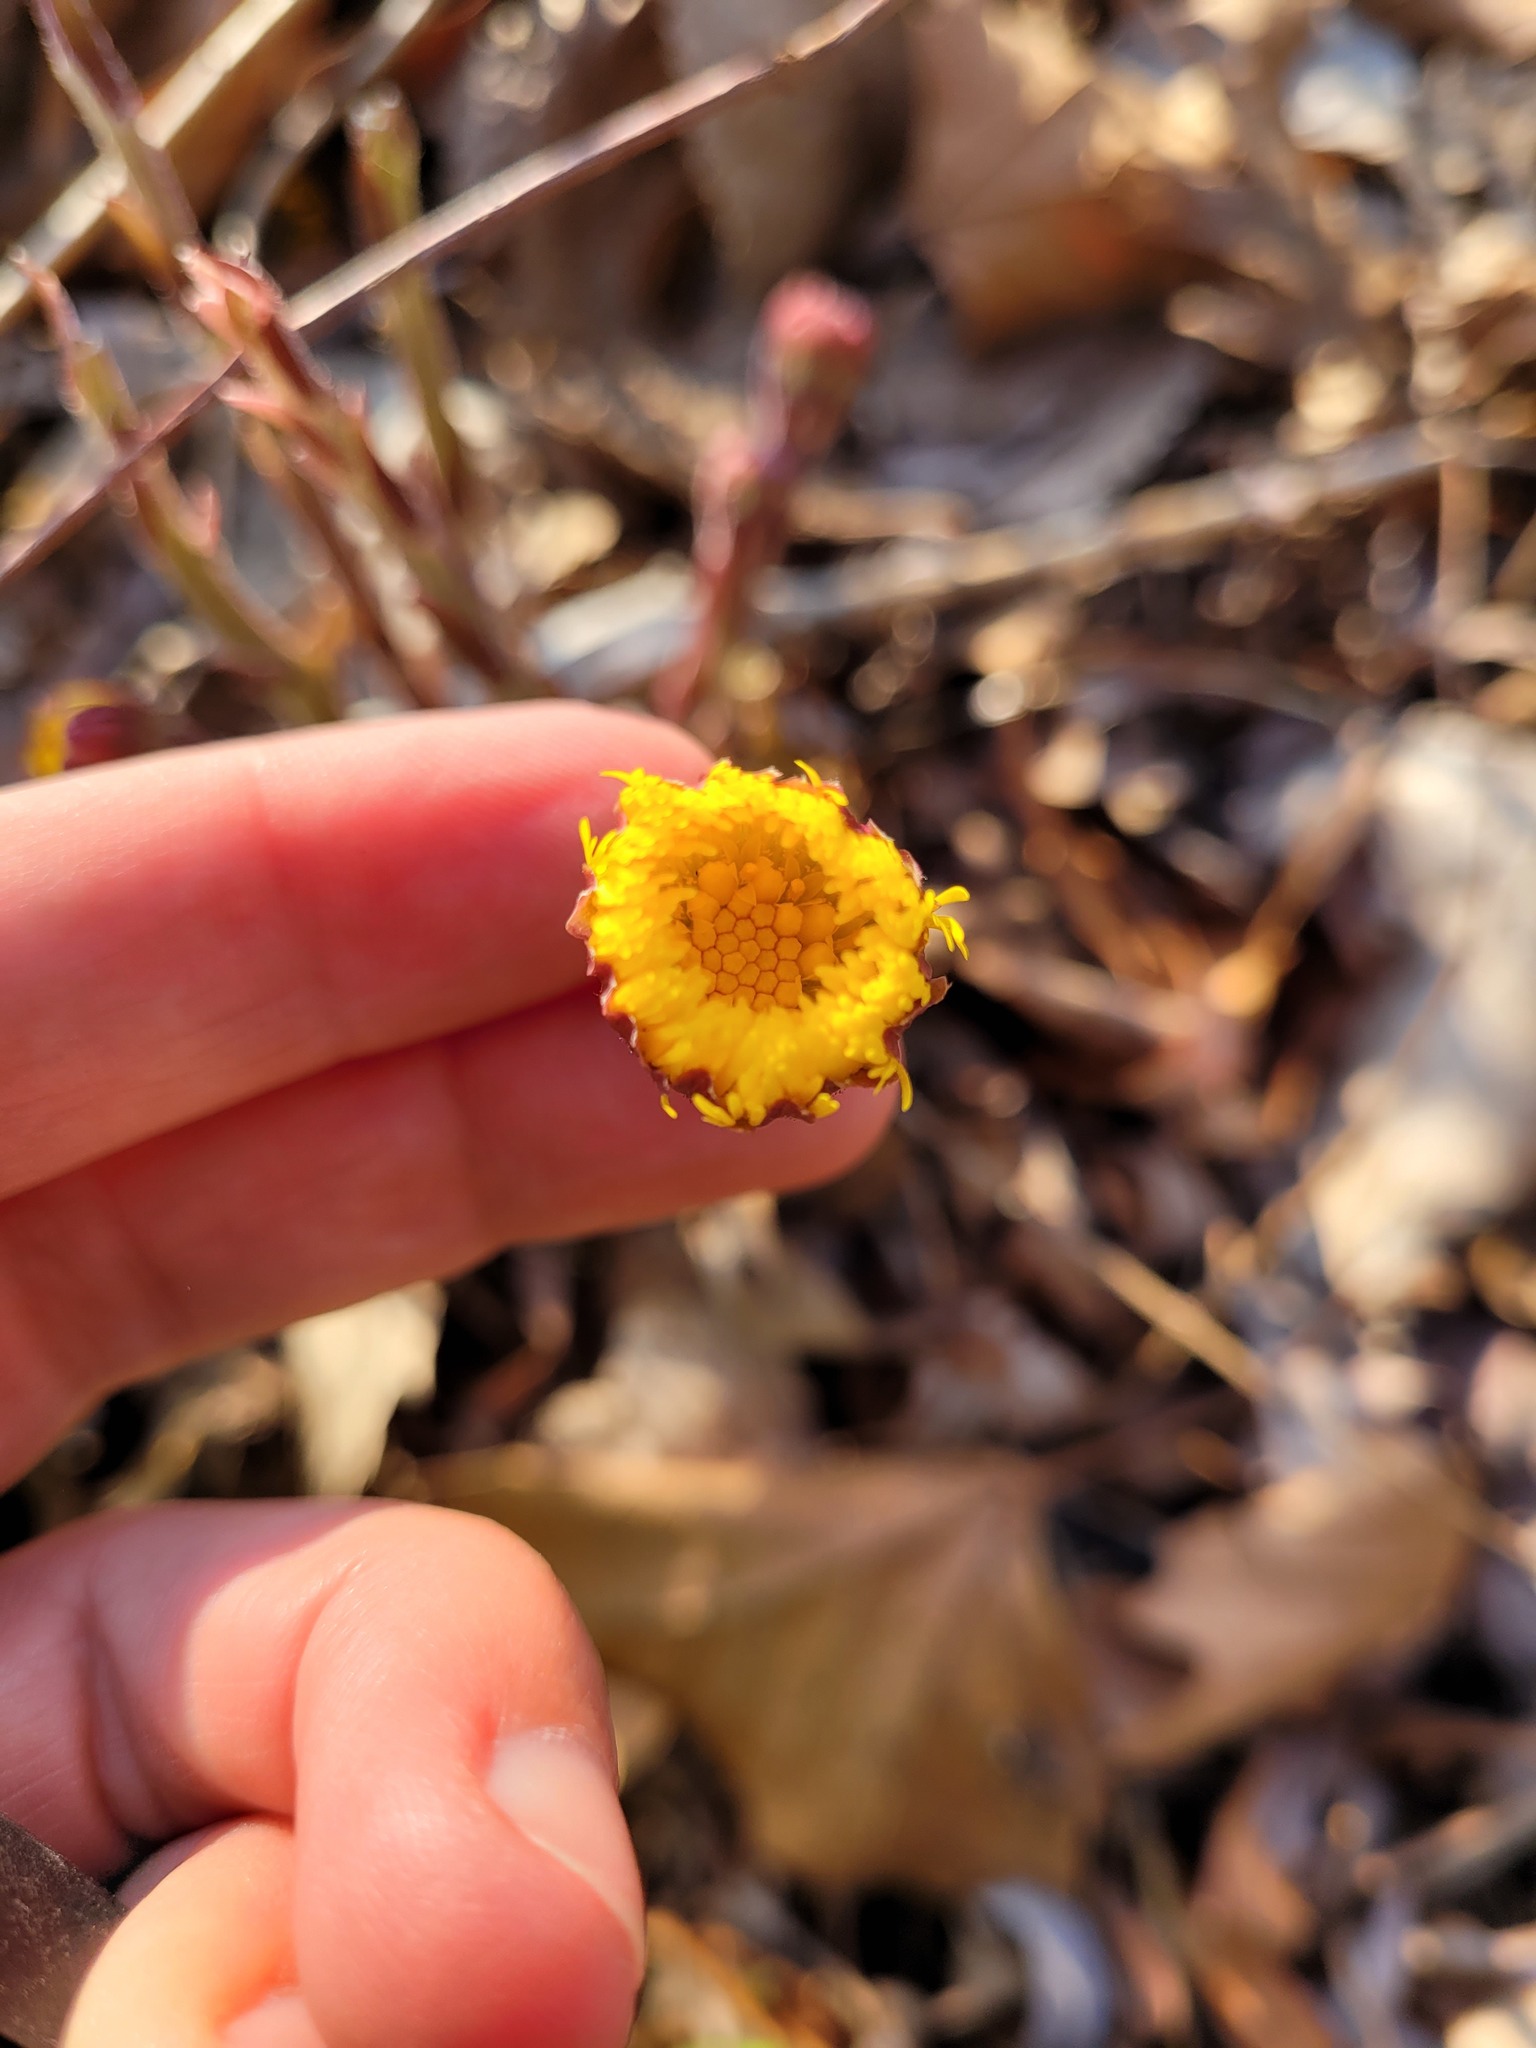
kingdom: Plantae
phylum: Tracheophyta
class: Magnoliopsida
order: Asterales
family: Asteraceae
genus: Tussilago
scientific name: Tussilago farfara
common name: Coltsfoot
